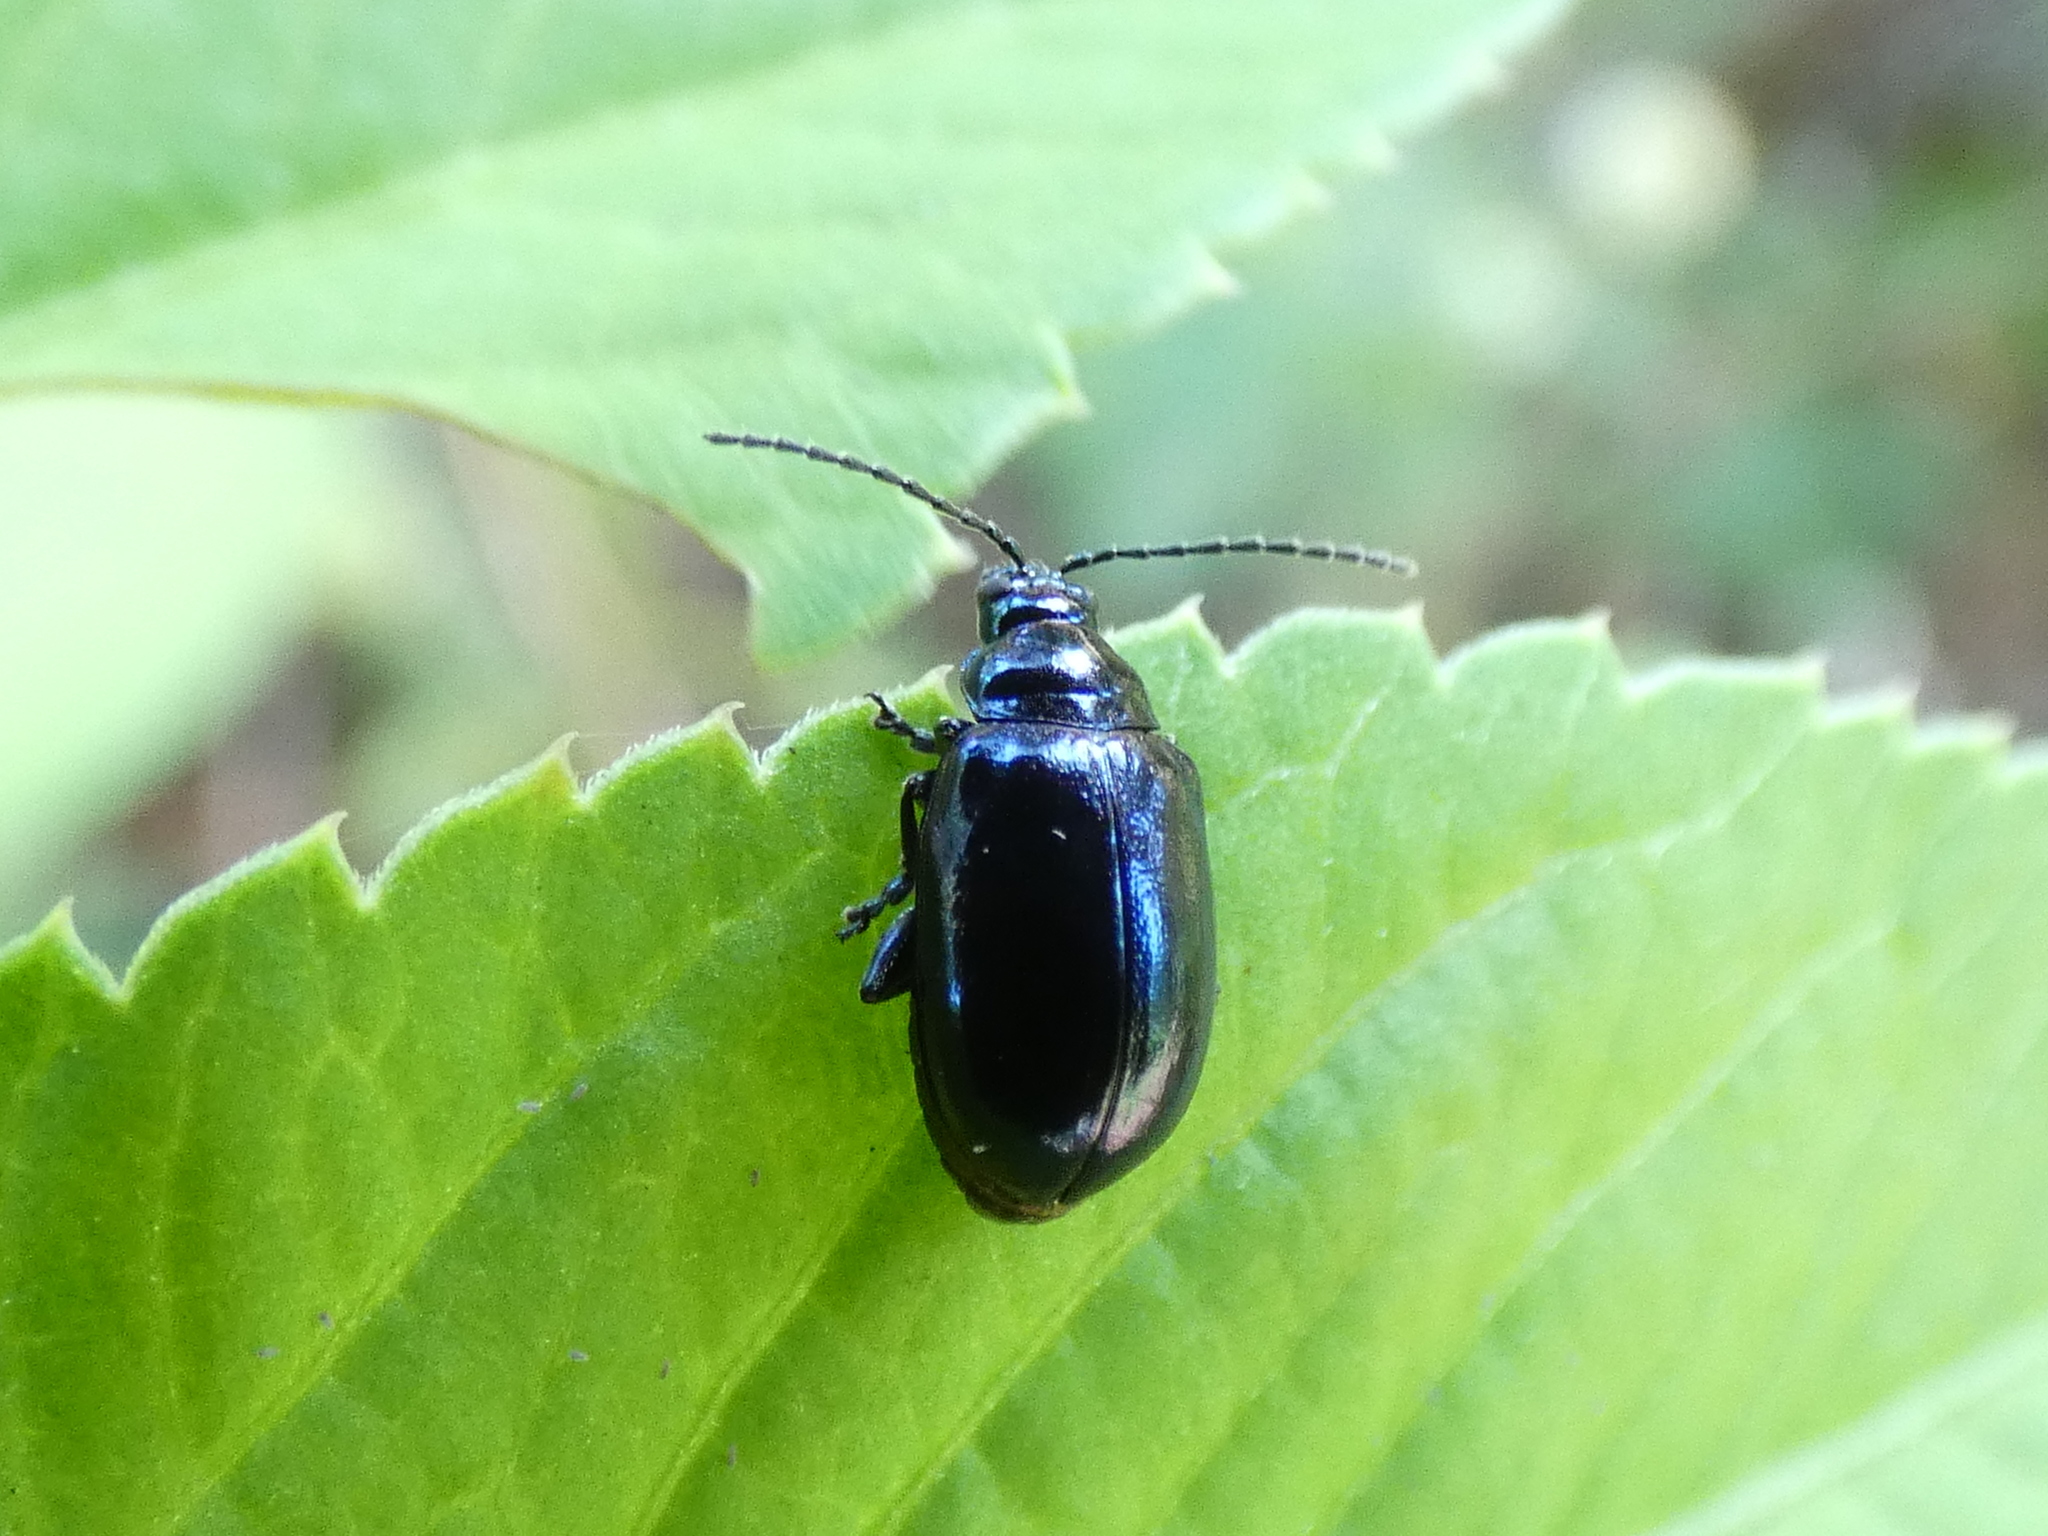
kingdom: Animalia
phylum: Arthropoda
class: Insecta
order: Coleoptera
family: Chrysomelidae
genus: Altica
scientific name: Altica chalybea
